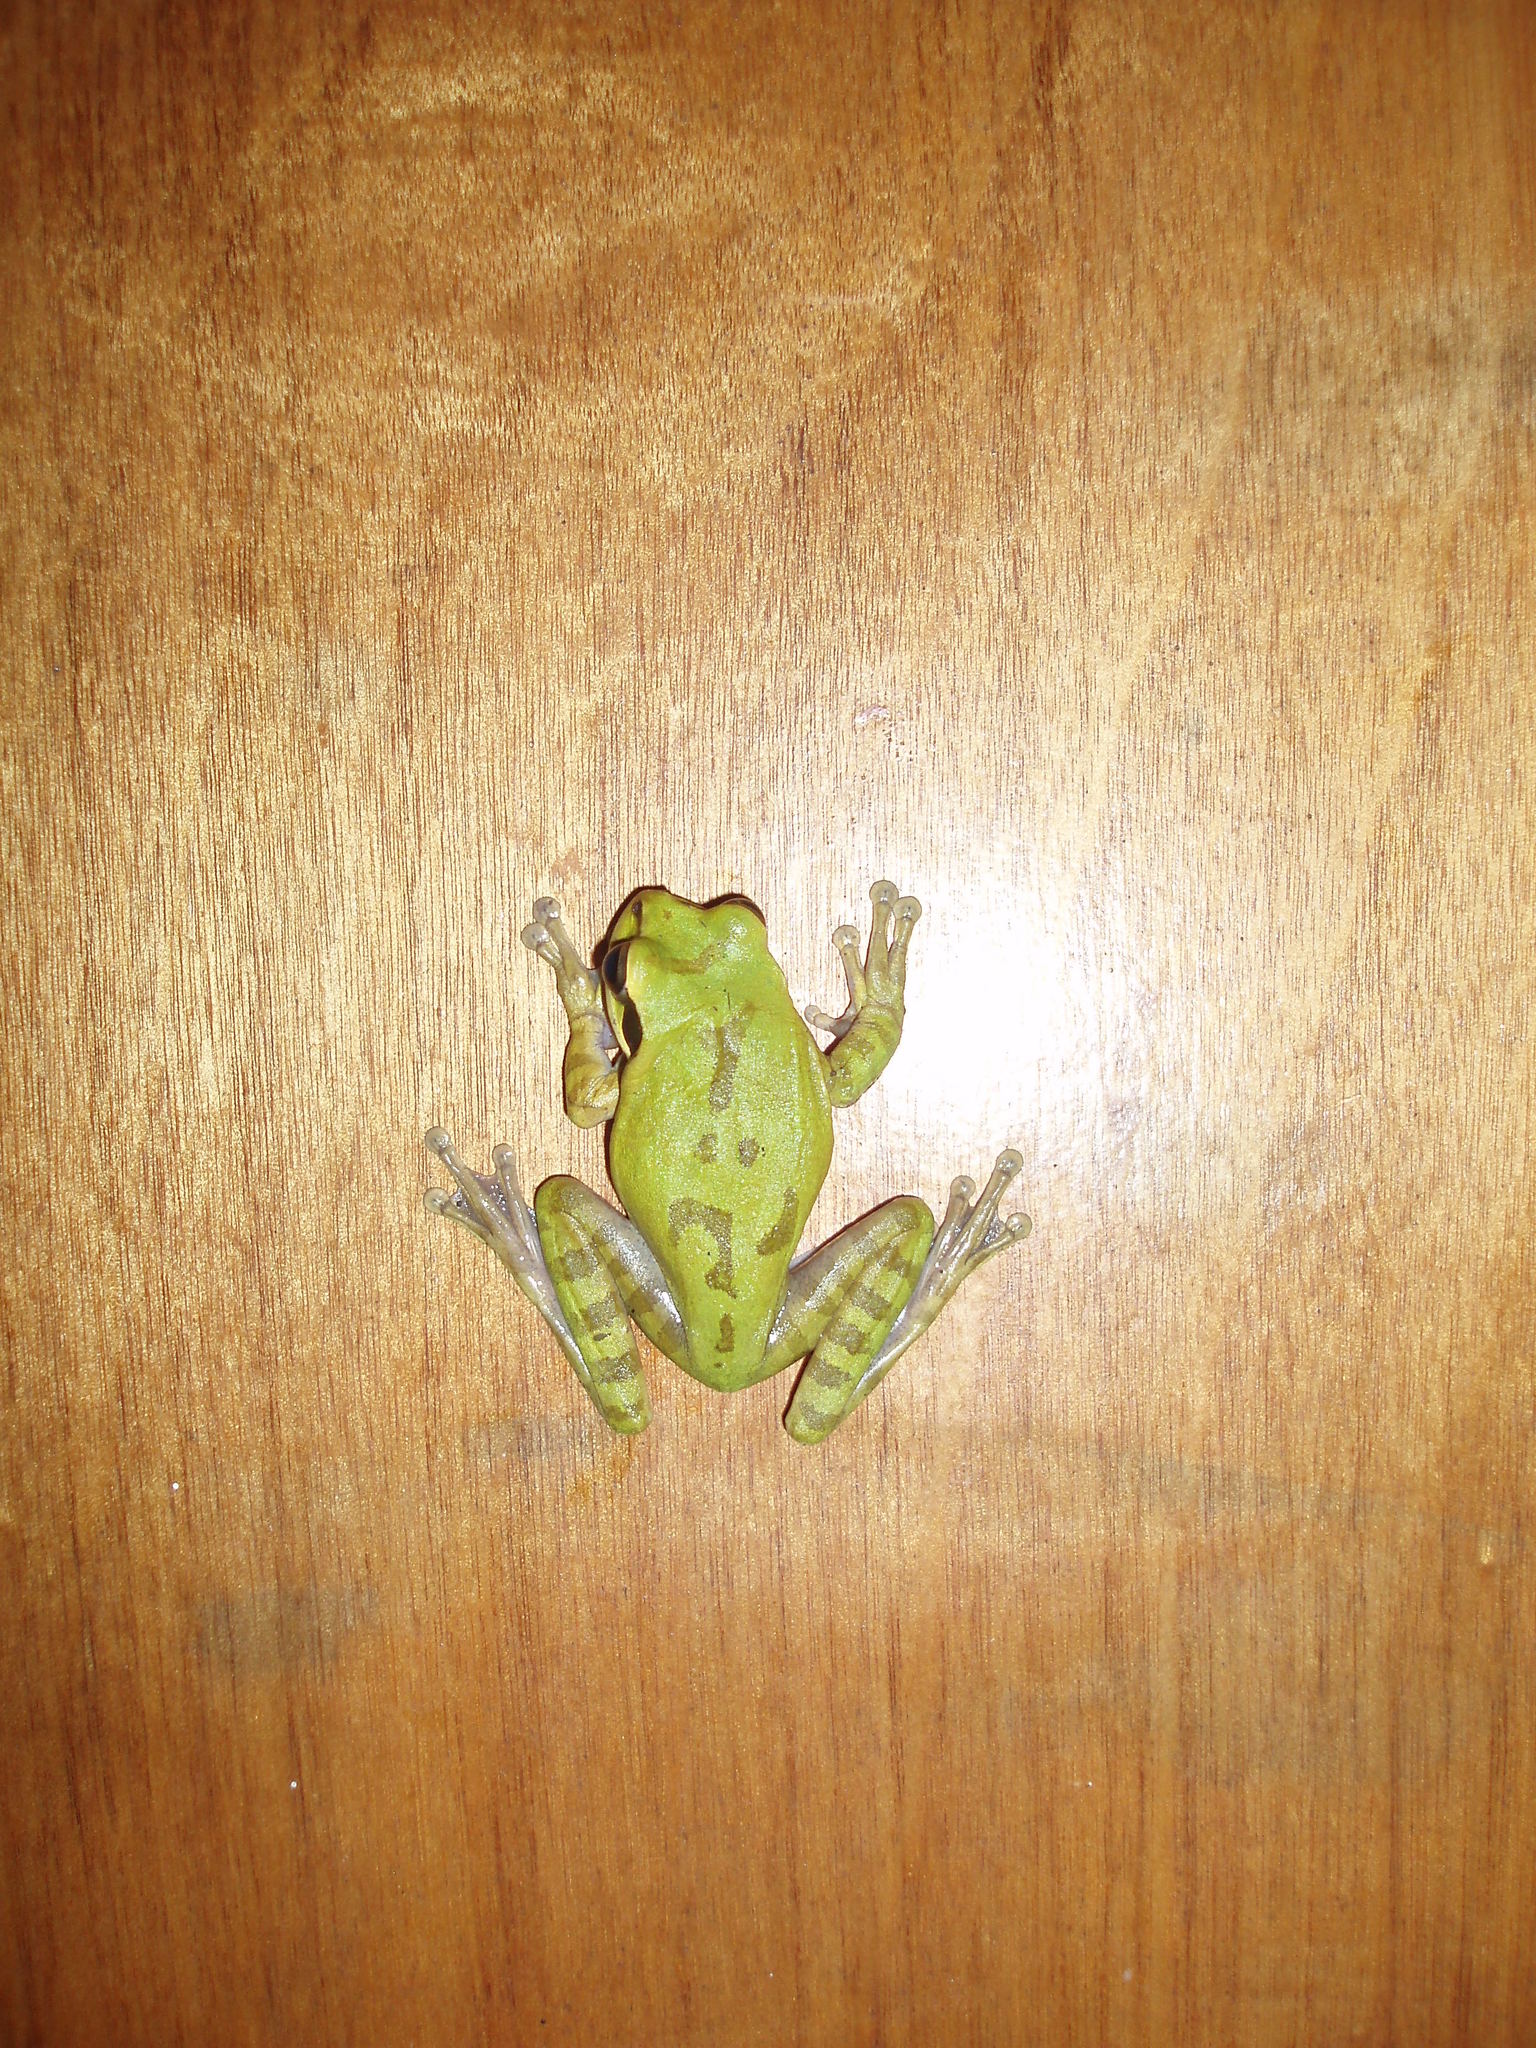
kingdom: Animalia
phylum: Chordata
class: Amphibia
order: Anura
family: Hylidae
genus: Smilisca
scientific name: Smilisca phaeota
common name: Central american smilisca
